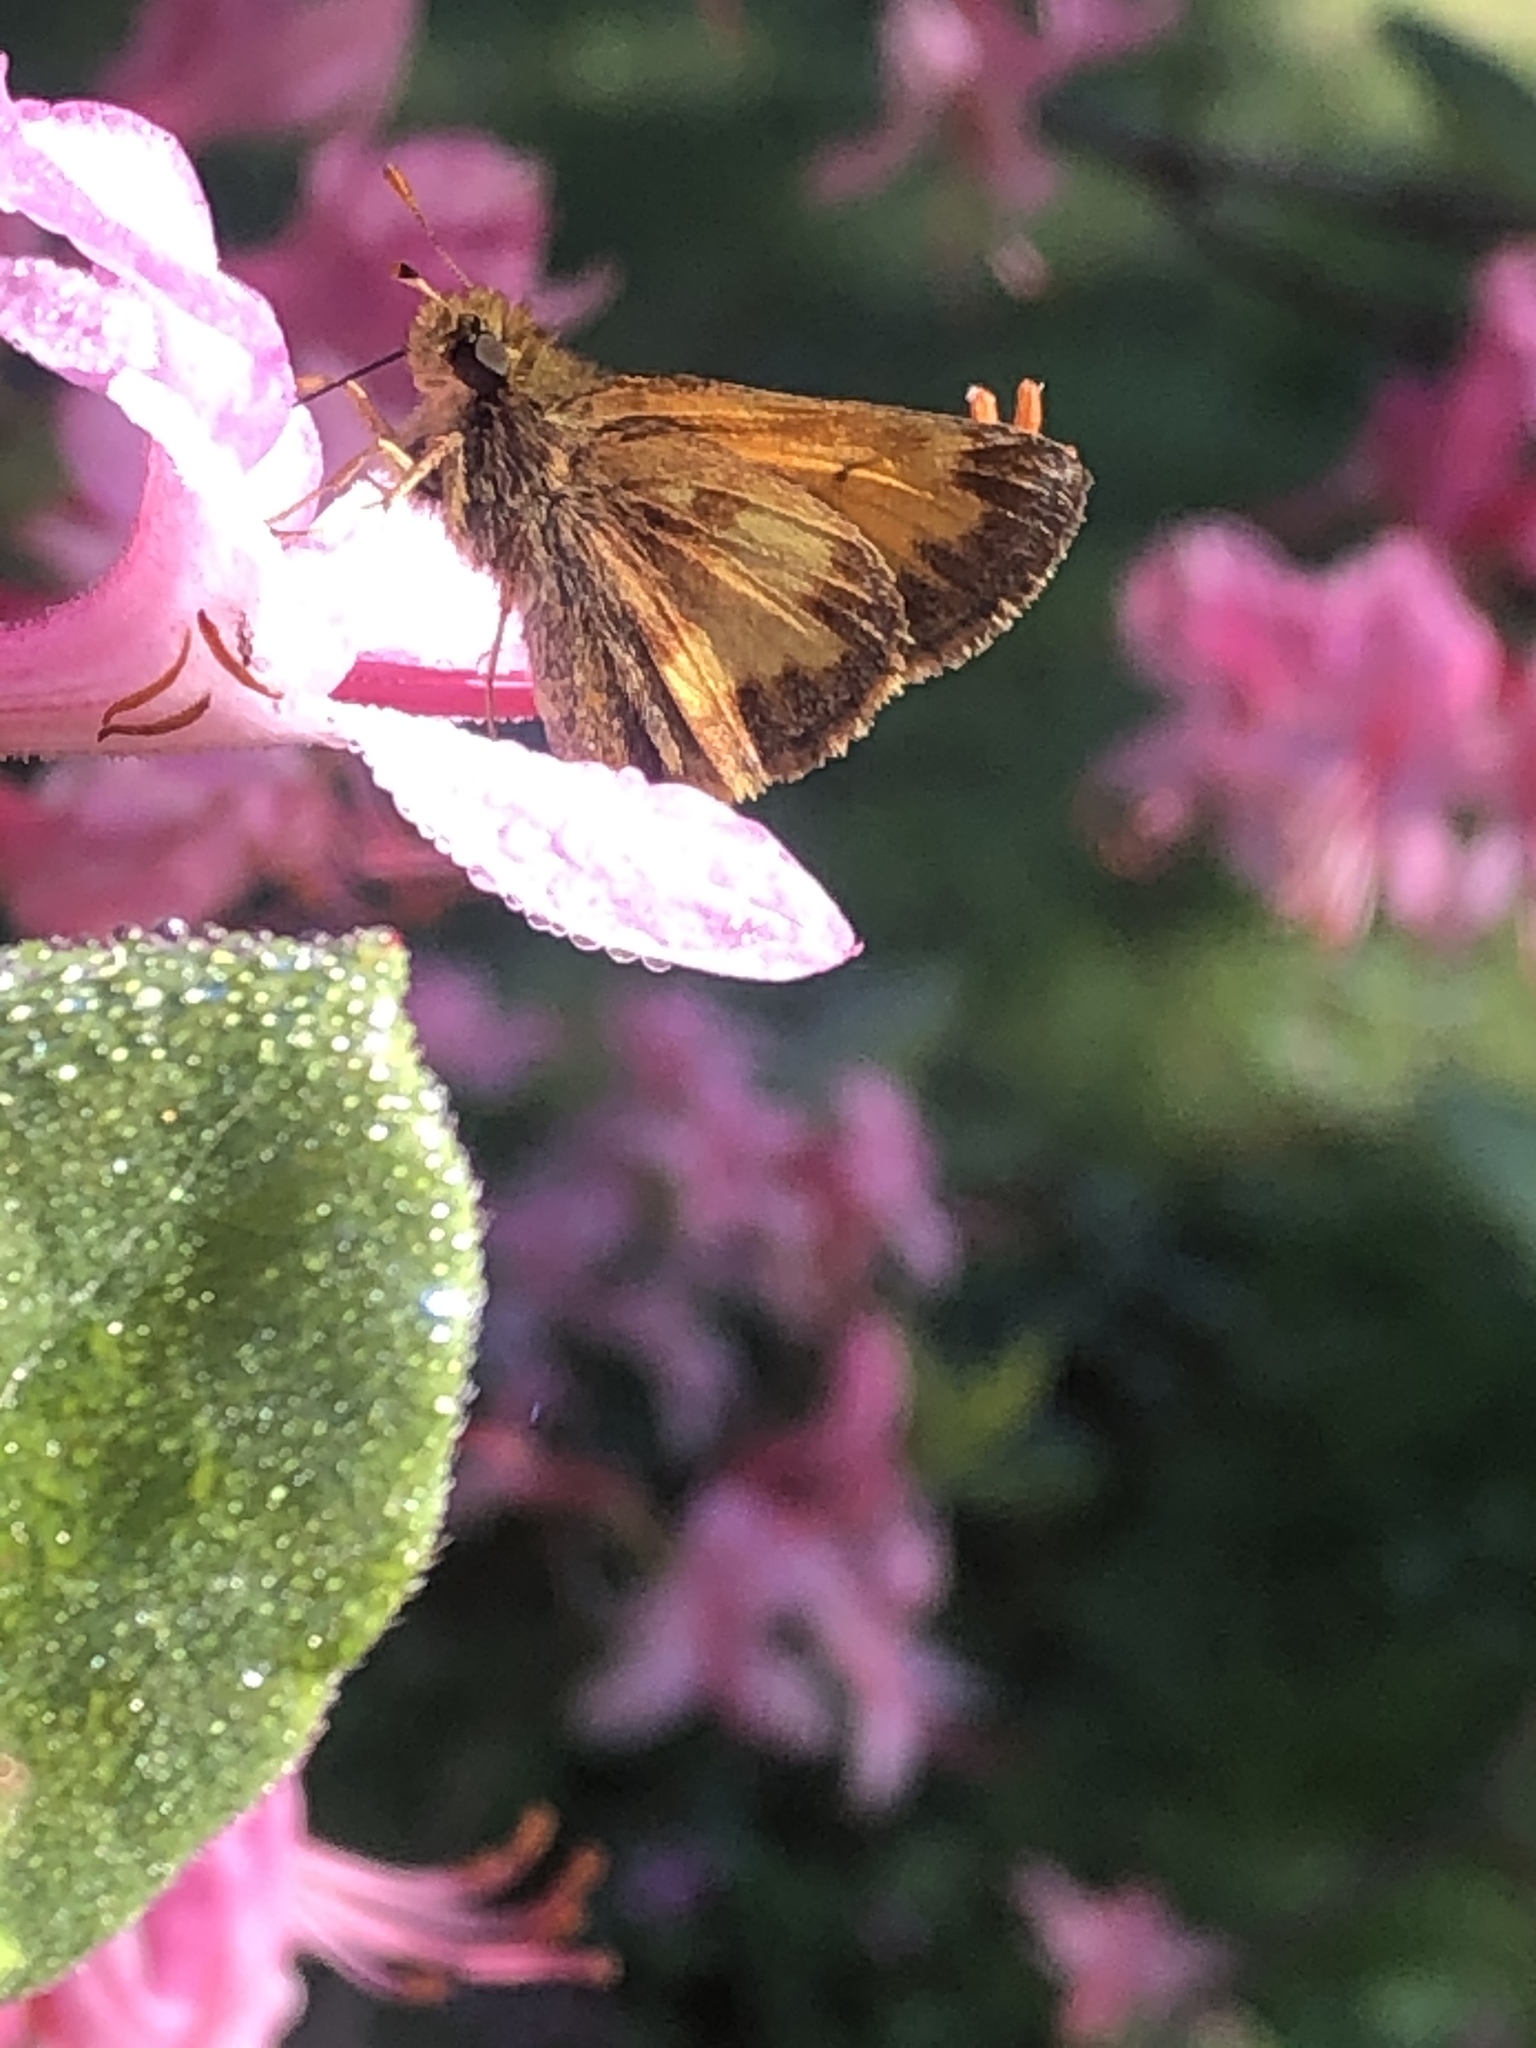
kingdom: Animalia
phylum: Arthropoda
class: Insecta
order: Lepidoptera
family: Hesperiidae
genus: Lon
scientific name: Lon hobomok
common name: Hobomok skipper
